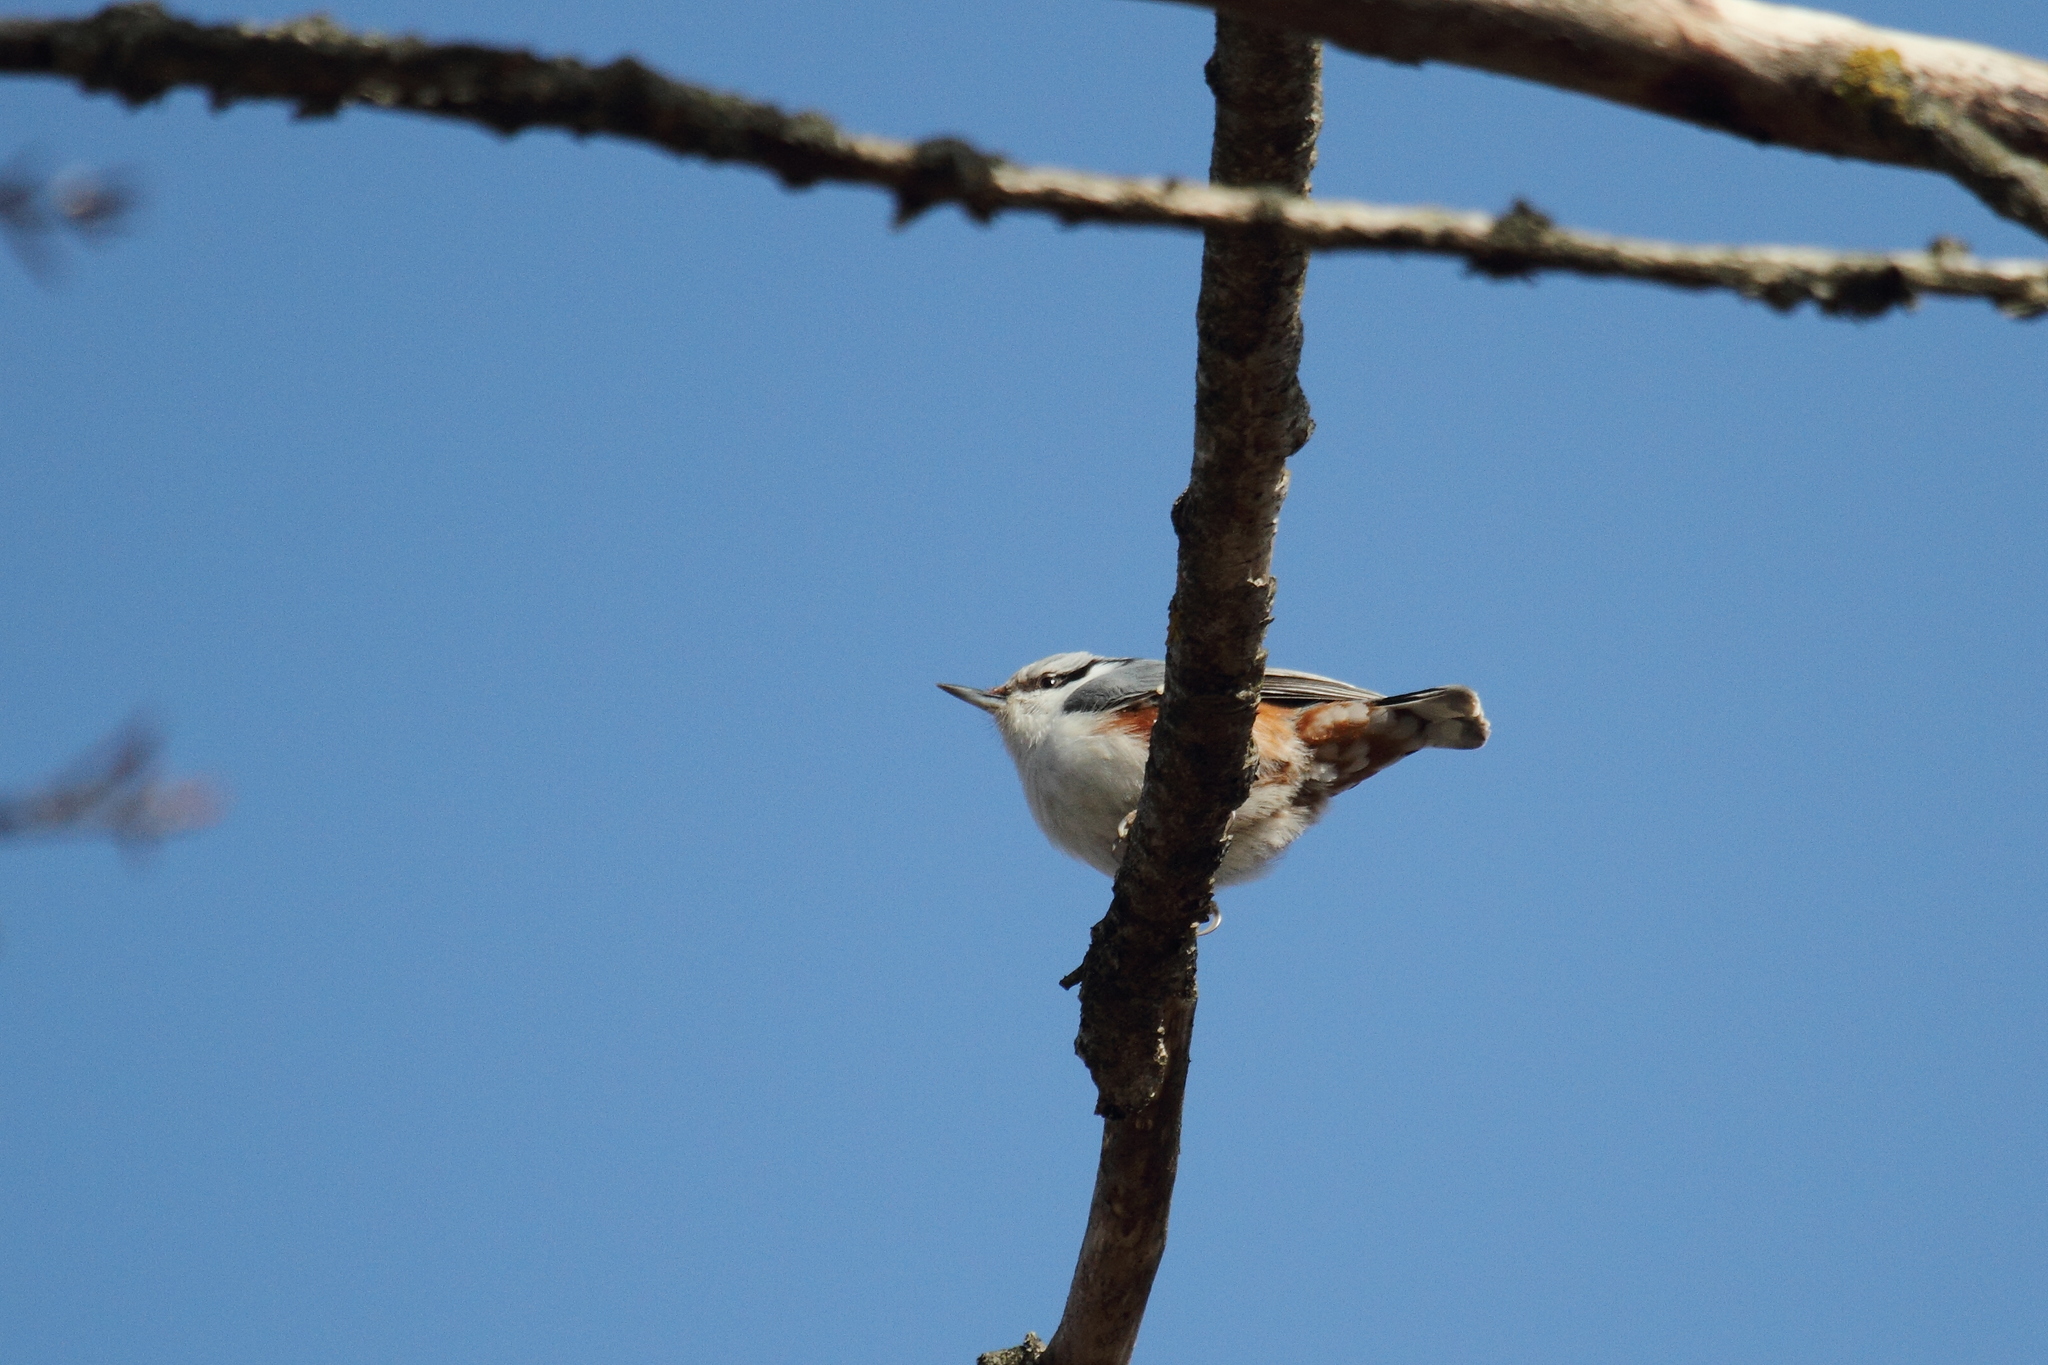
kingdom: Animalia
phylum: Chordata
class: Aves
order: Passeriformes
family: Sittidae
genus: Sitta
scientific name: Sitta europaea
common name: Eurasian nuthatch
